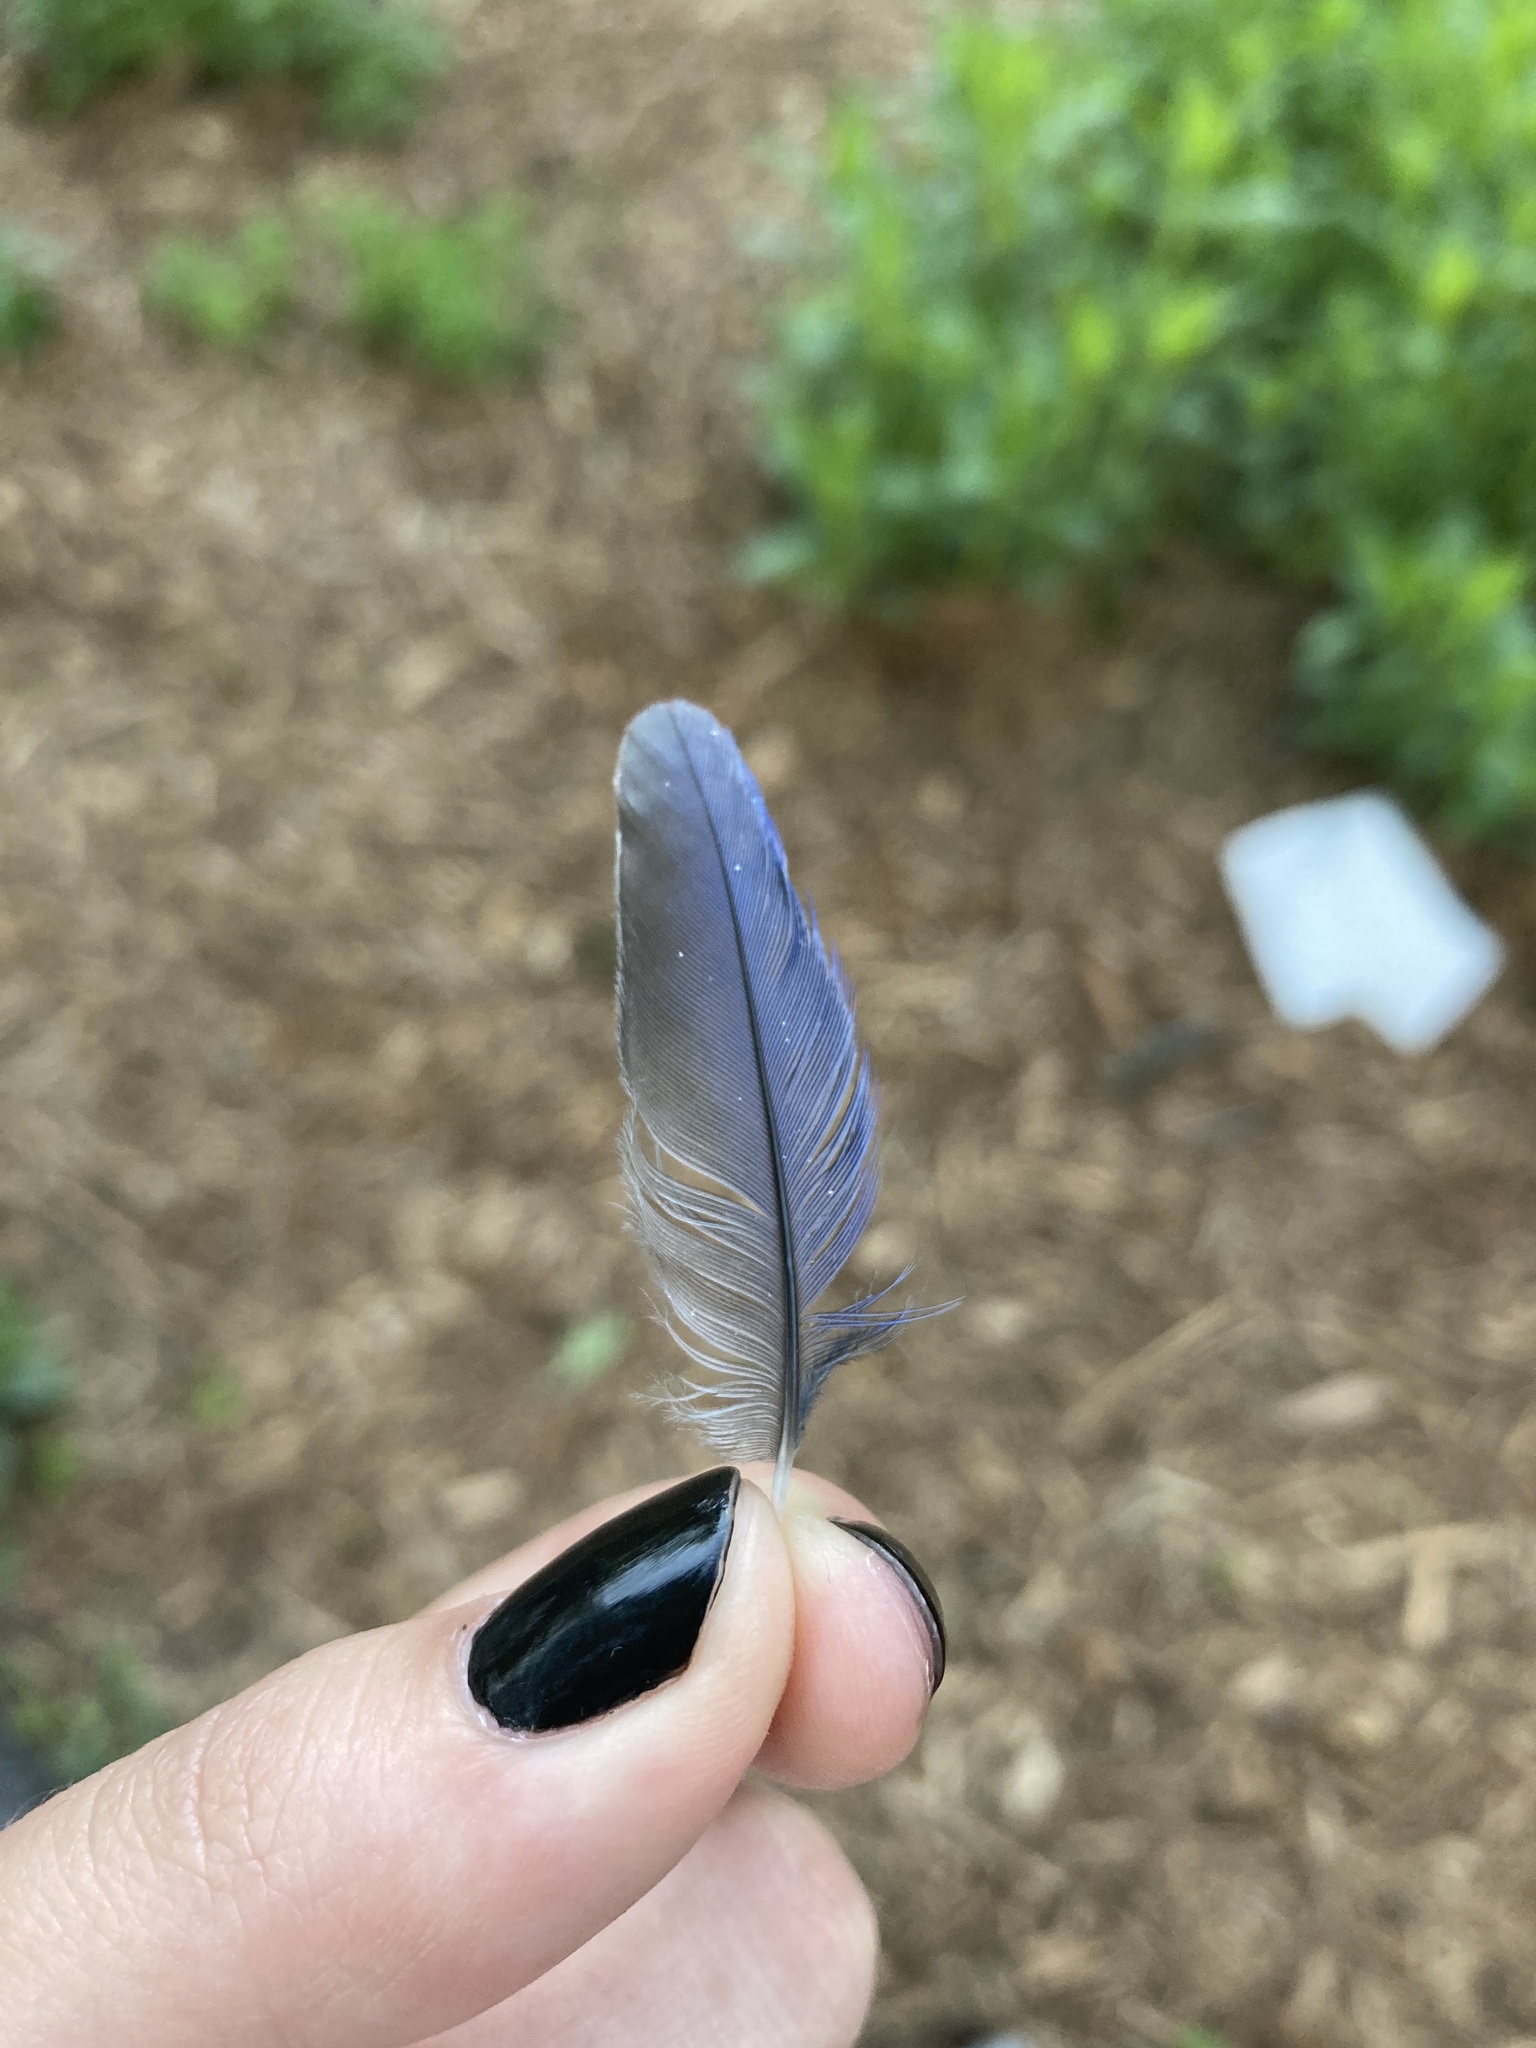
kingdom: Animalia
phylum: Chordata
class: Aves
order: Passeriformes
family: Turdidae
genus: Sialia
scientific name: Sialia sialis
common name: Eastern bluebird
